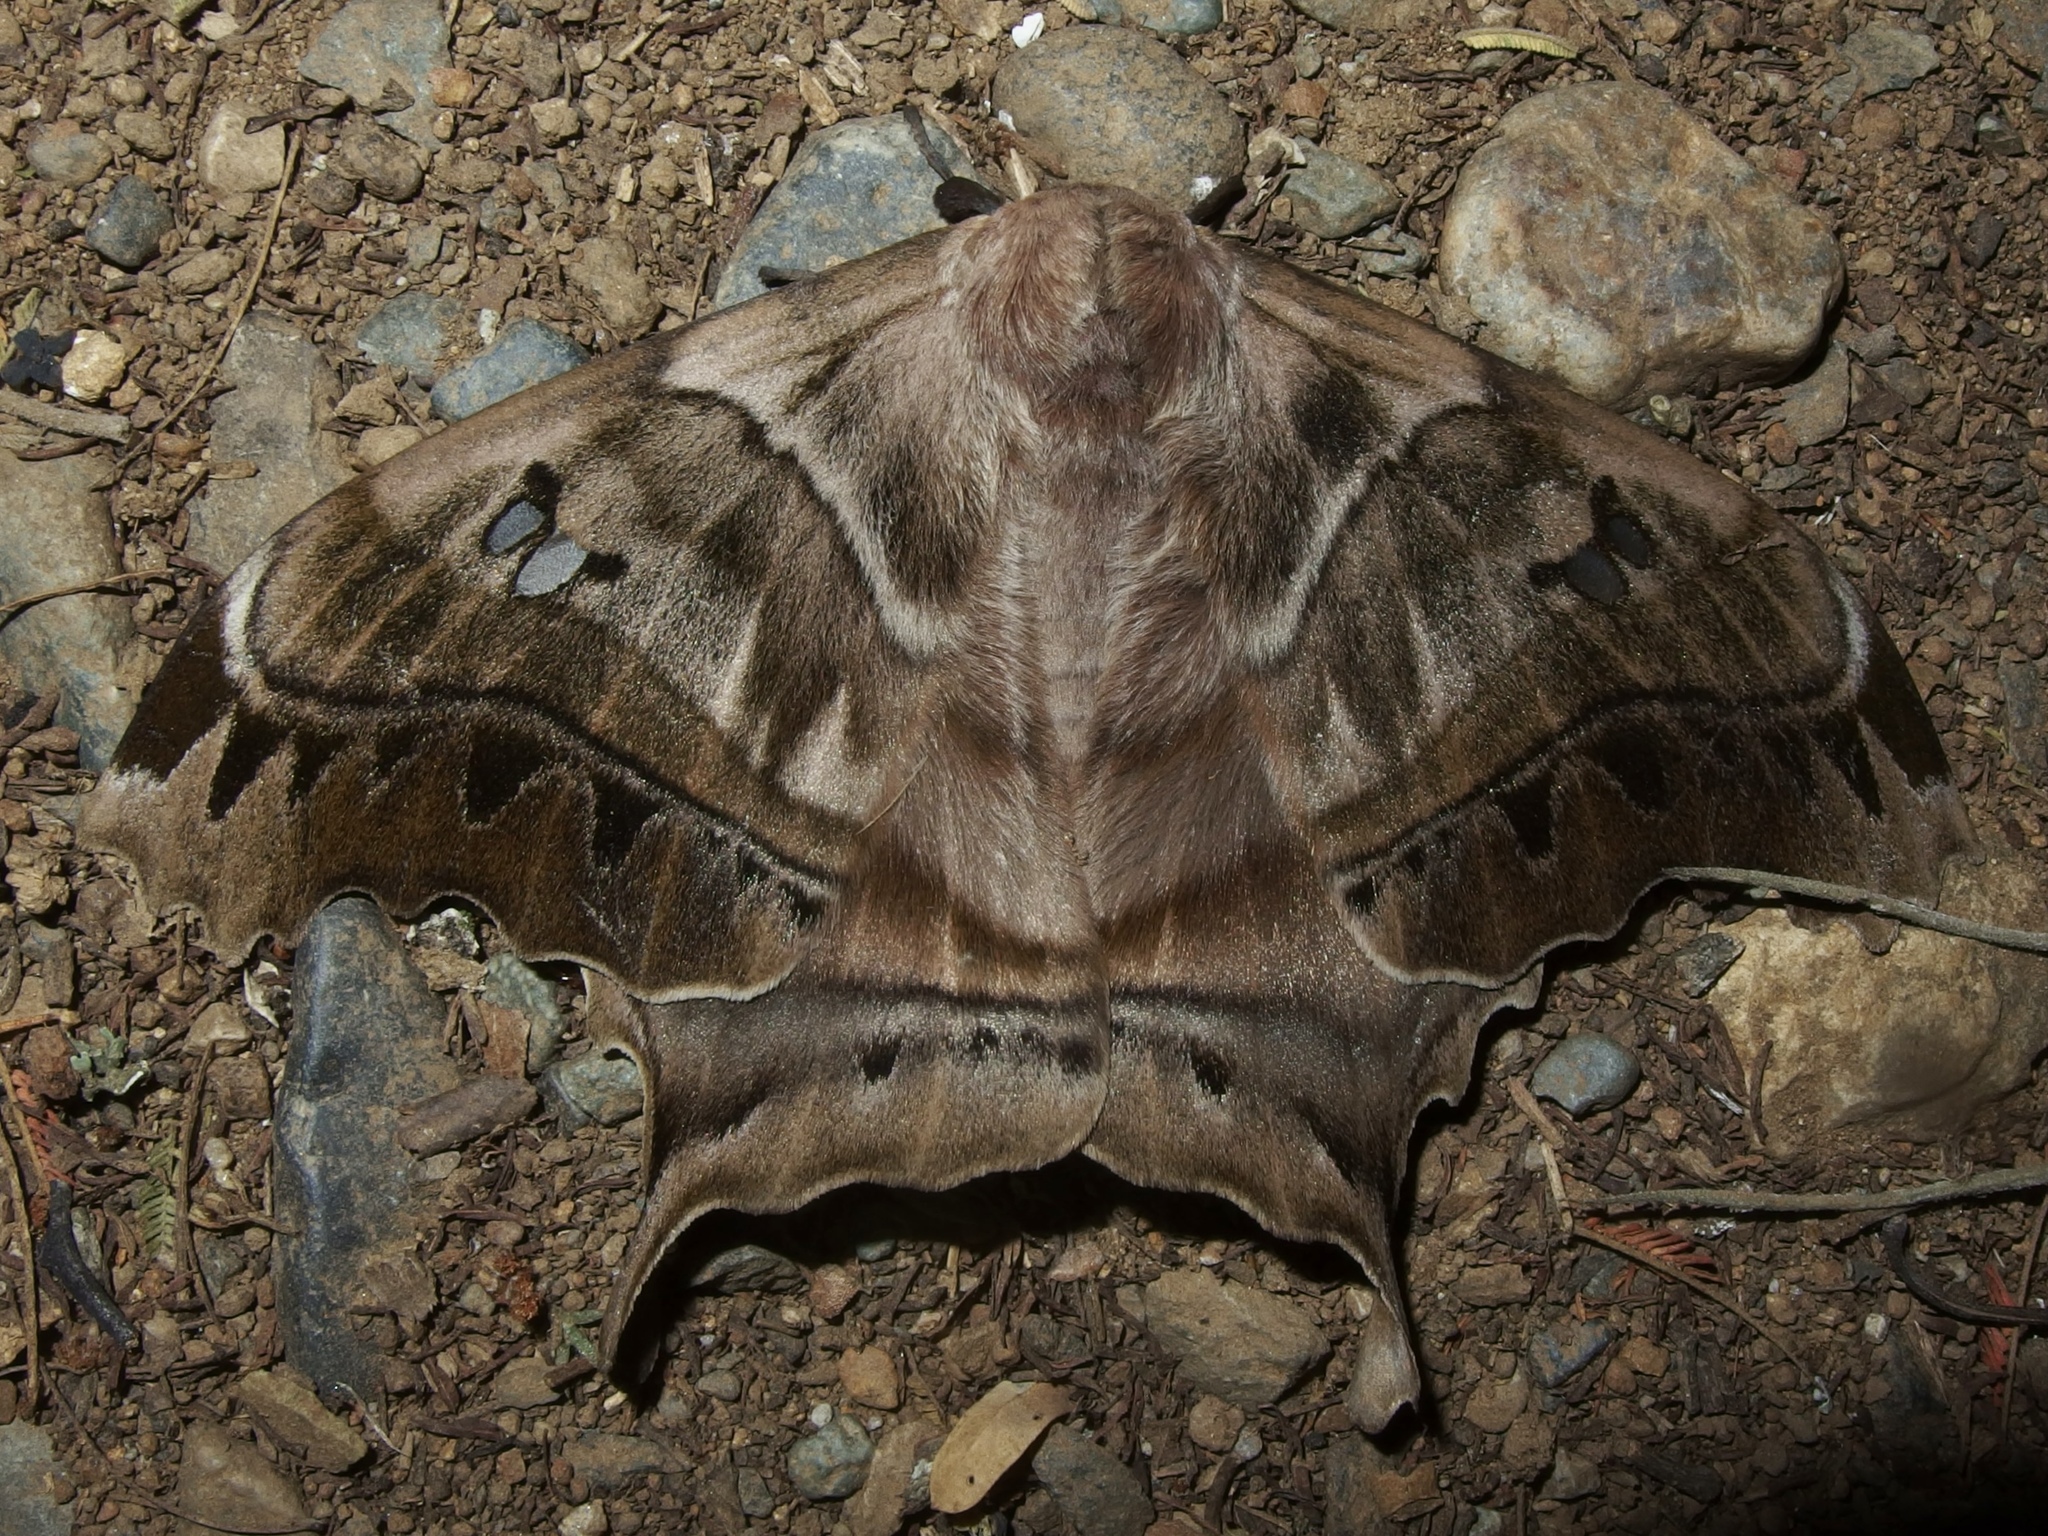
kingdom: Animalia
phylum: Arthropoda
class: Insecta
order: Lepidoptera
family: Saturniidae
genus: Titaea
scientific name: Titaea tamerlan
